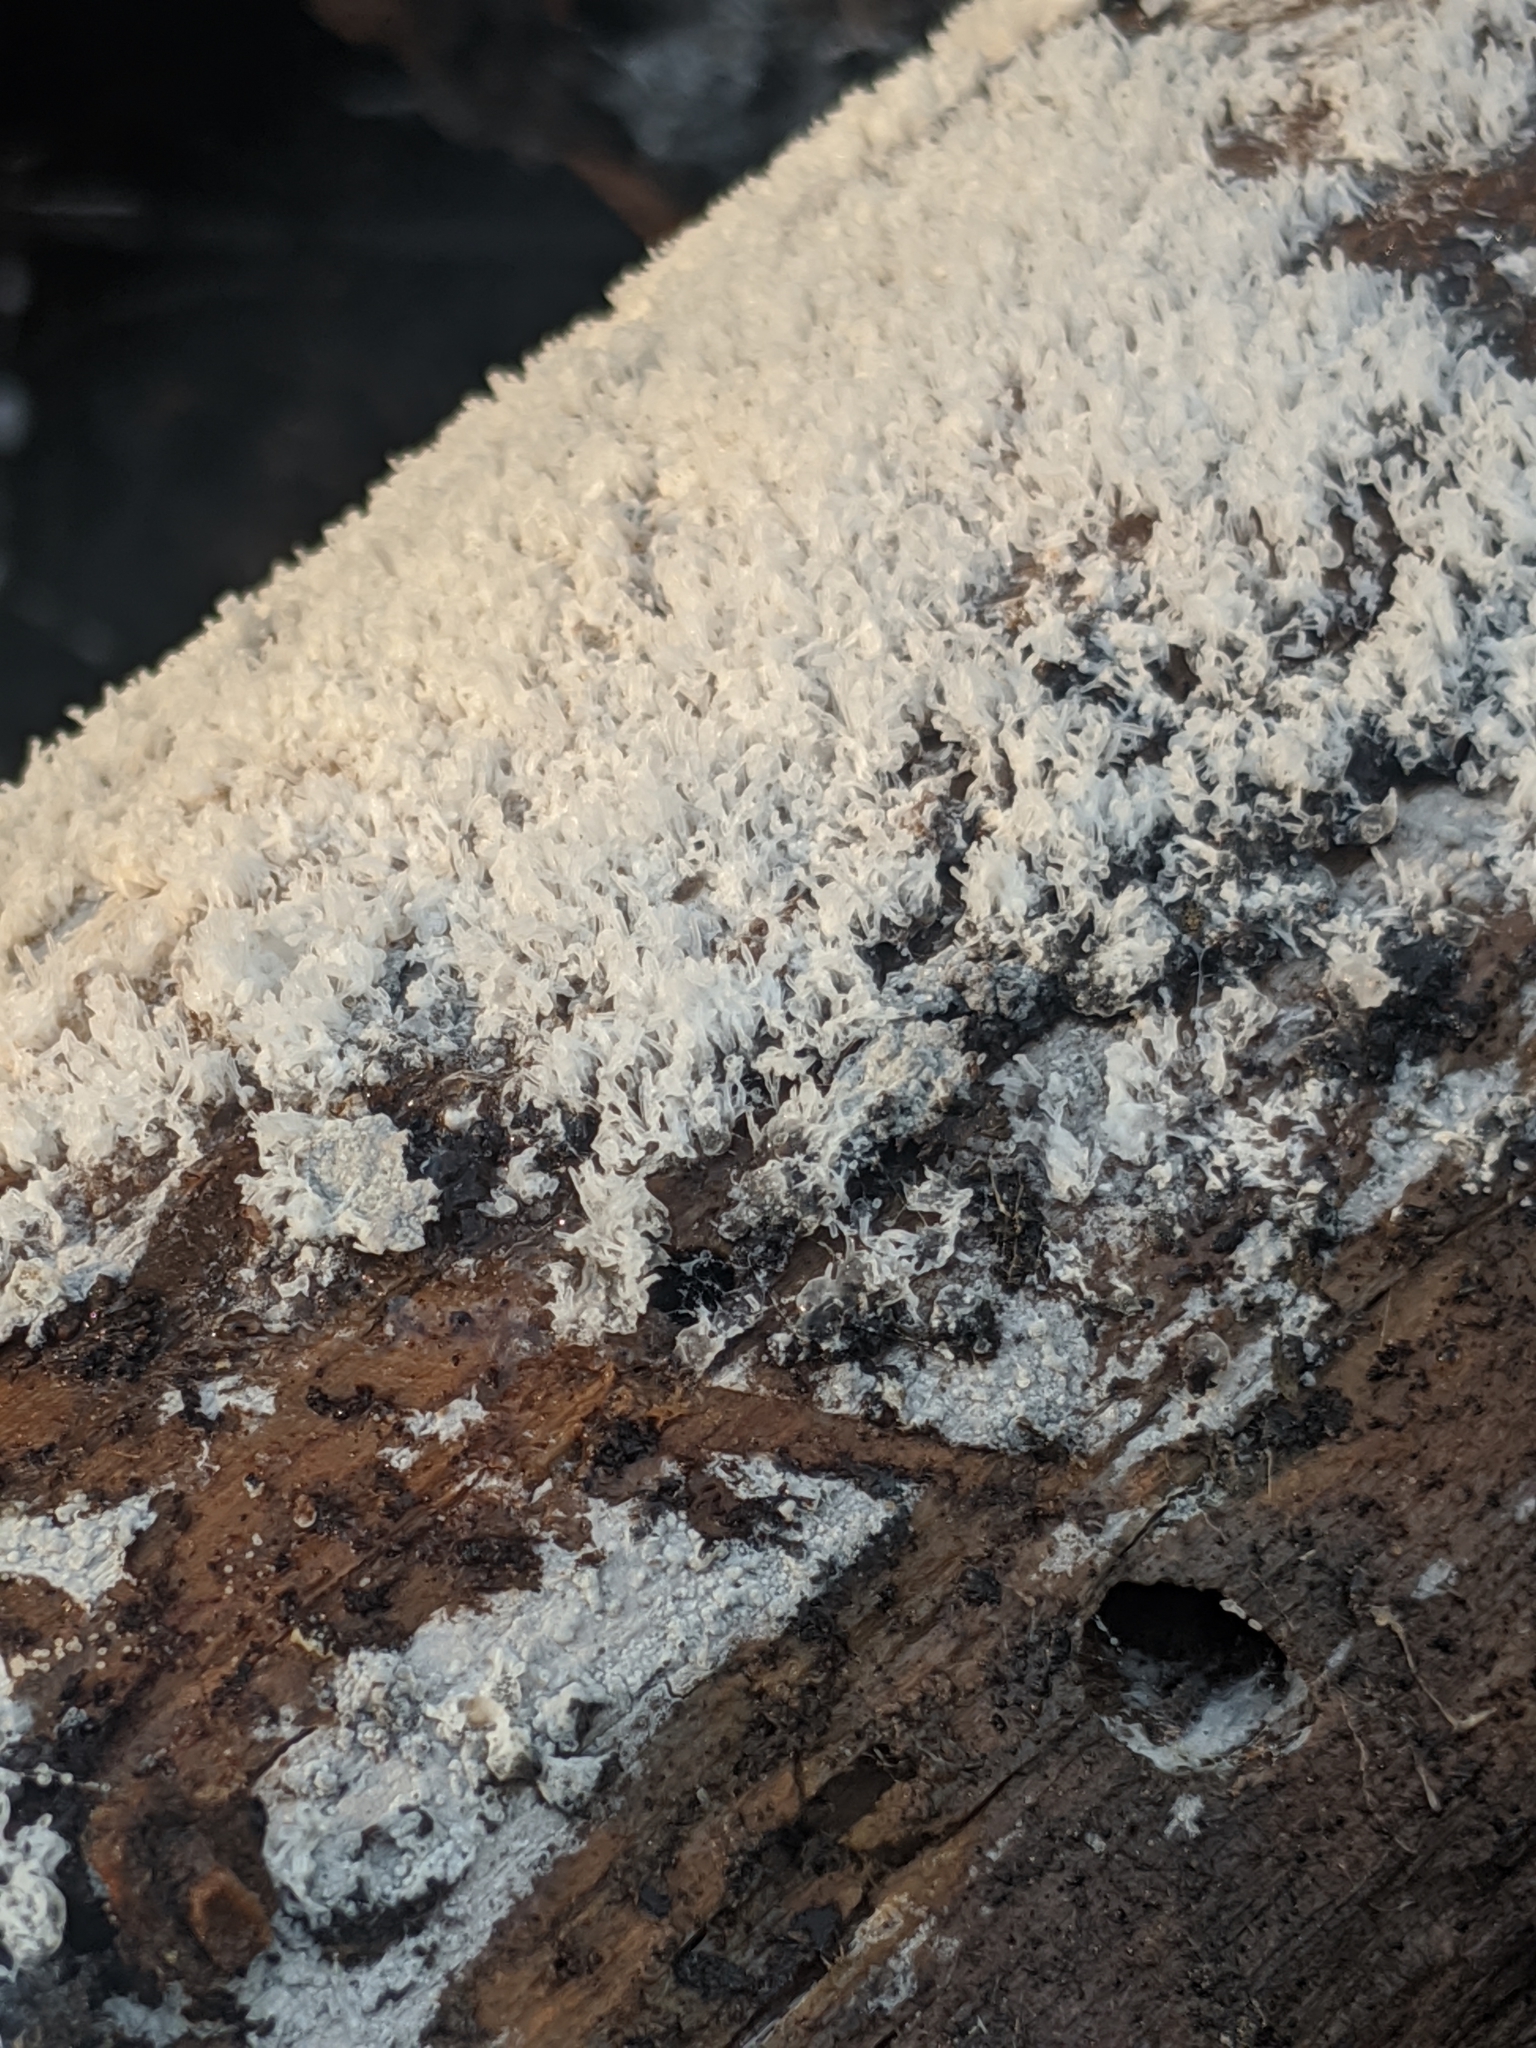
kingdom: Protozoa
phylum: Mycetozoa
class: Protosteliomycetes
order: Ceratiomyxales
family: Ceratiomyxaceae
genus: Ceratiomyxa
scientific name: Ceratiomyxa fruticulosa
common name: Honeycomb coral slime mold
